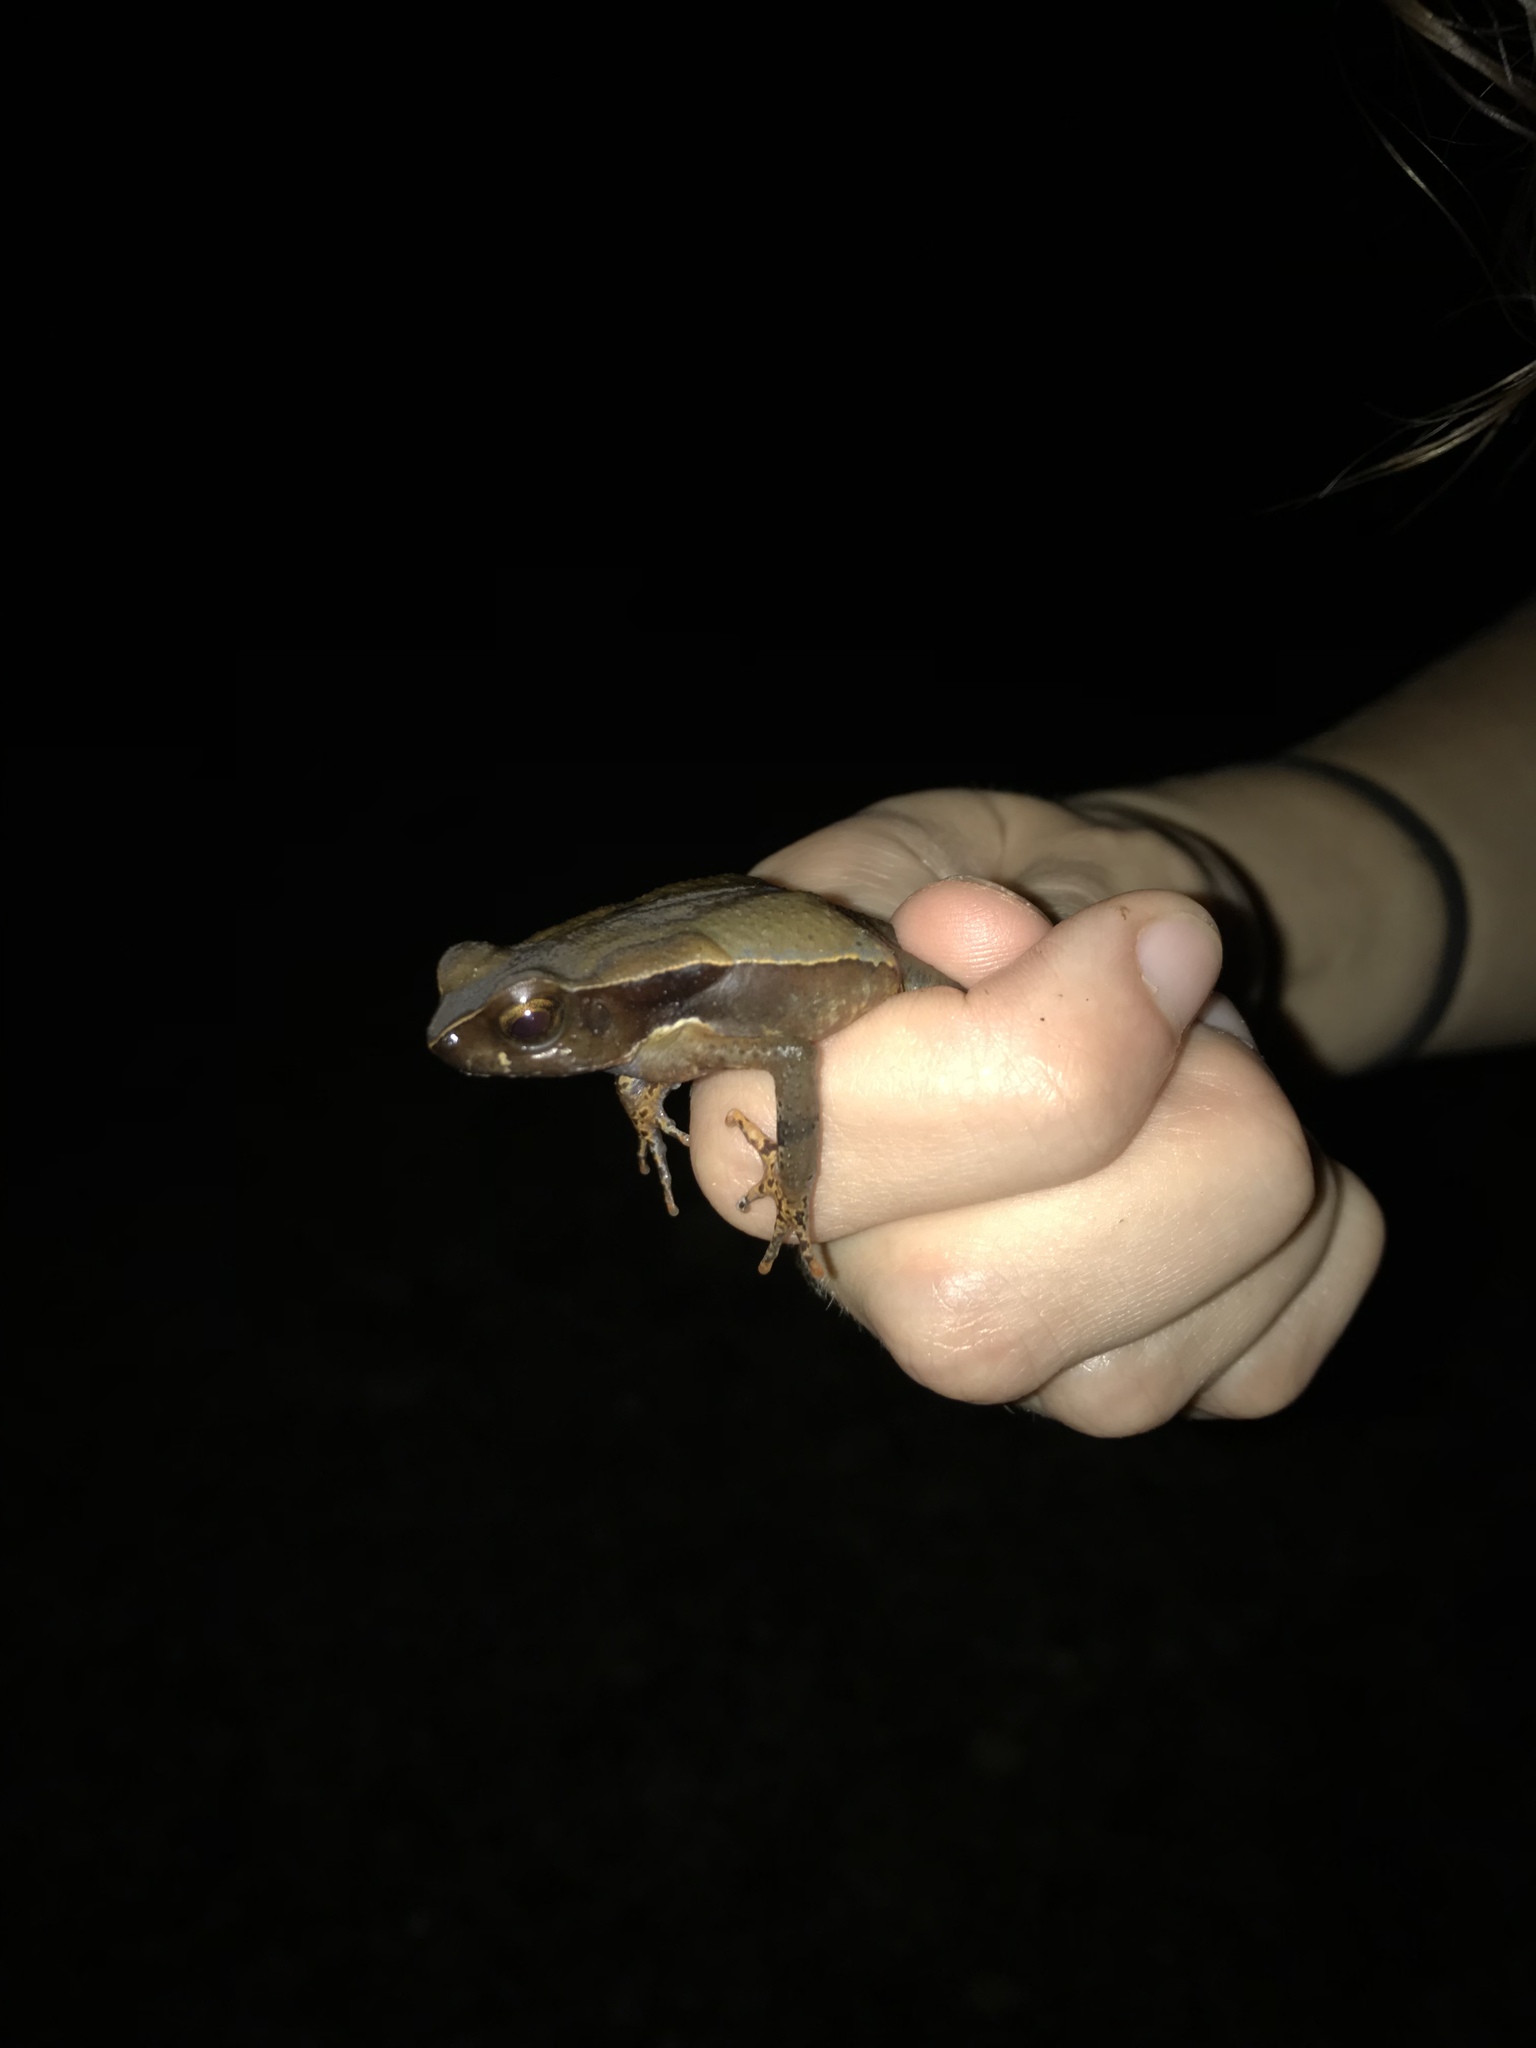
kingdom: Animalia
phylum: Chordata
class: Amphibia
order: Anura
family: Bufonidae
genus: Rhaebo
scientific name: Rhaebo haematiticus
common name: Truando toad
